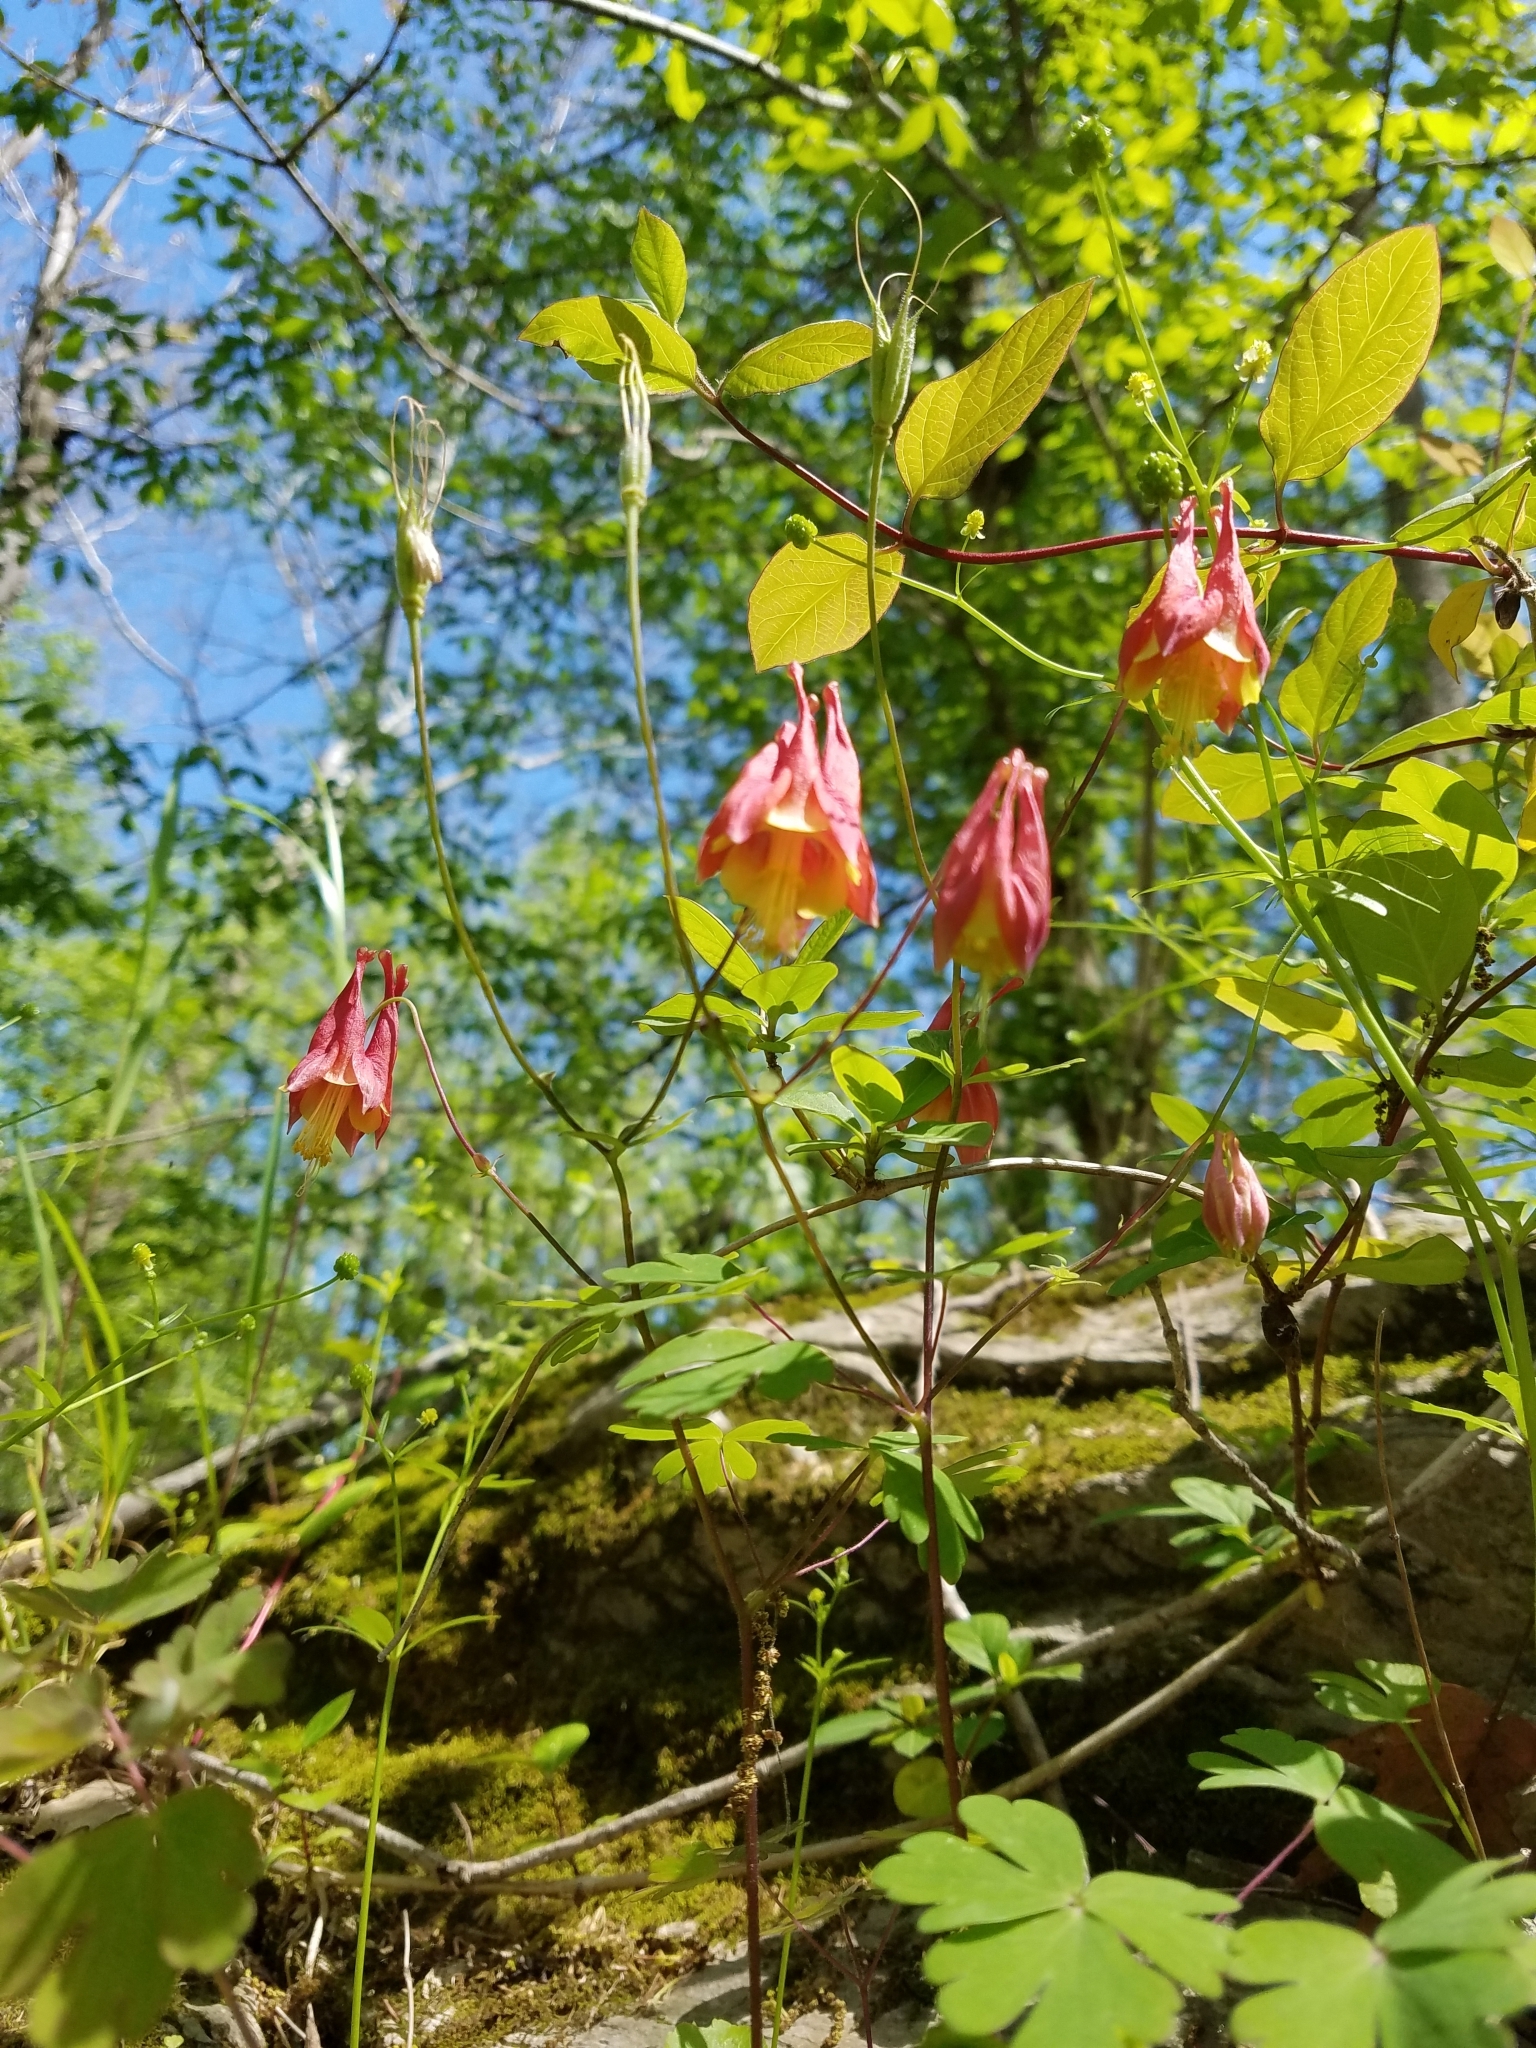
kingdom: Plantae
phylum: Tracheophyta
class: Magnoliopsida
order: Ranunculales
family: Ranunculaceae
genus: Aquilegia
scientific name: Aquilegia canadensis
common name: American columbine
